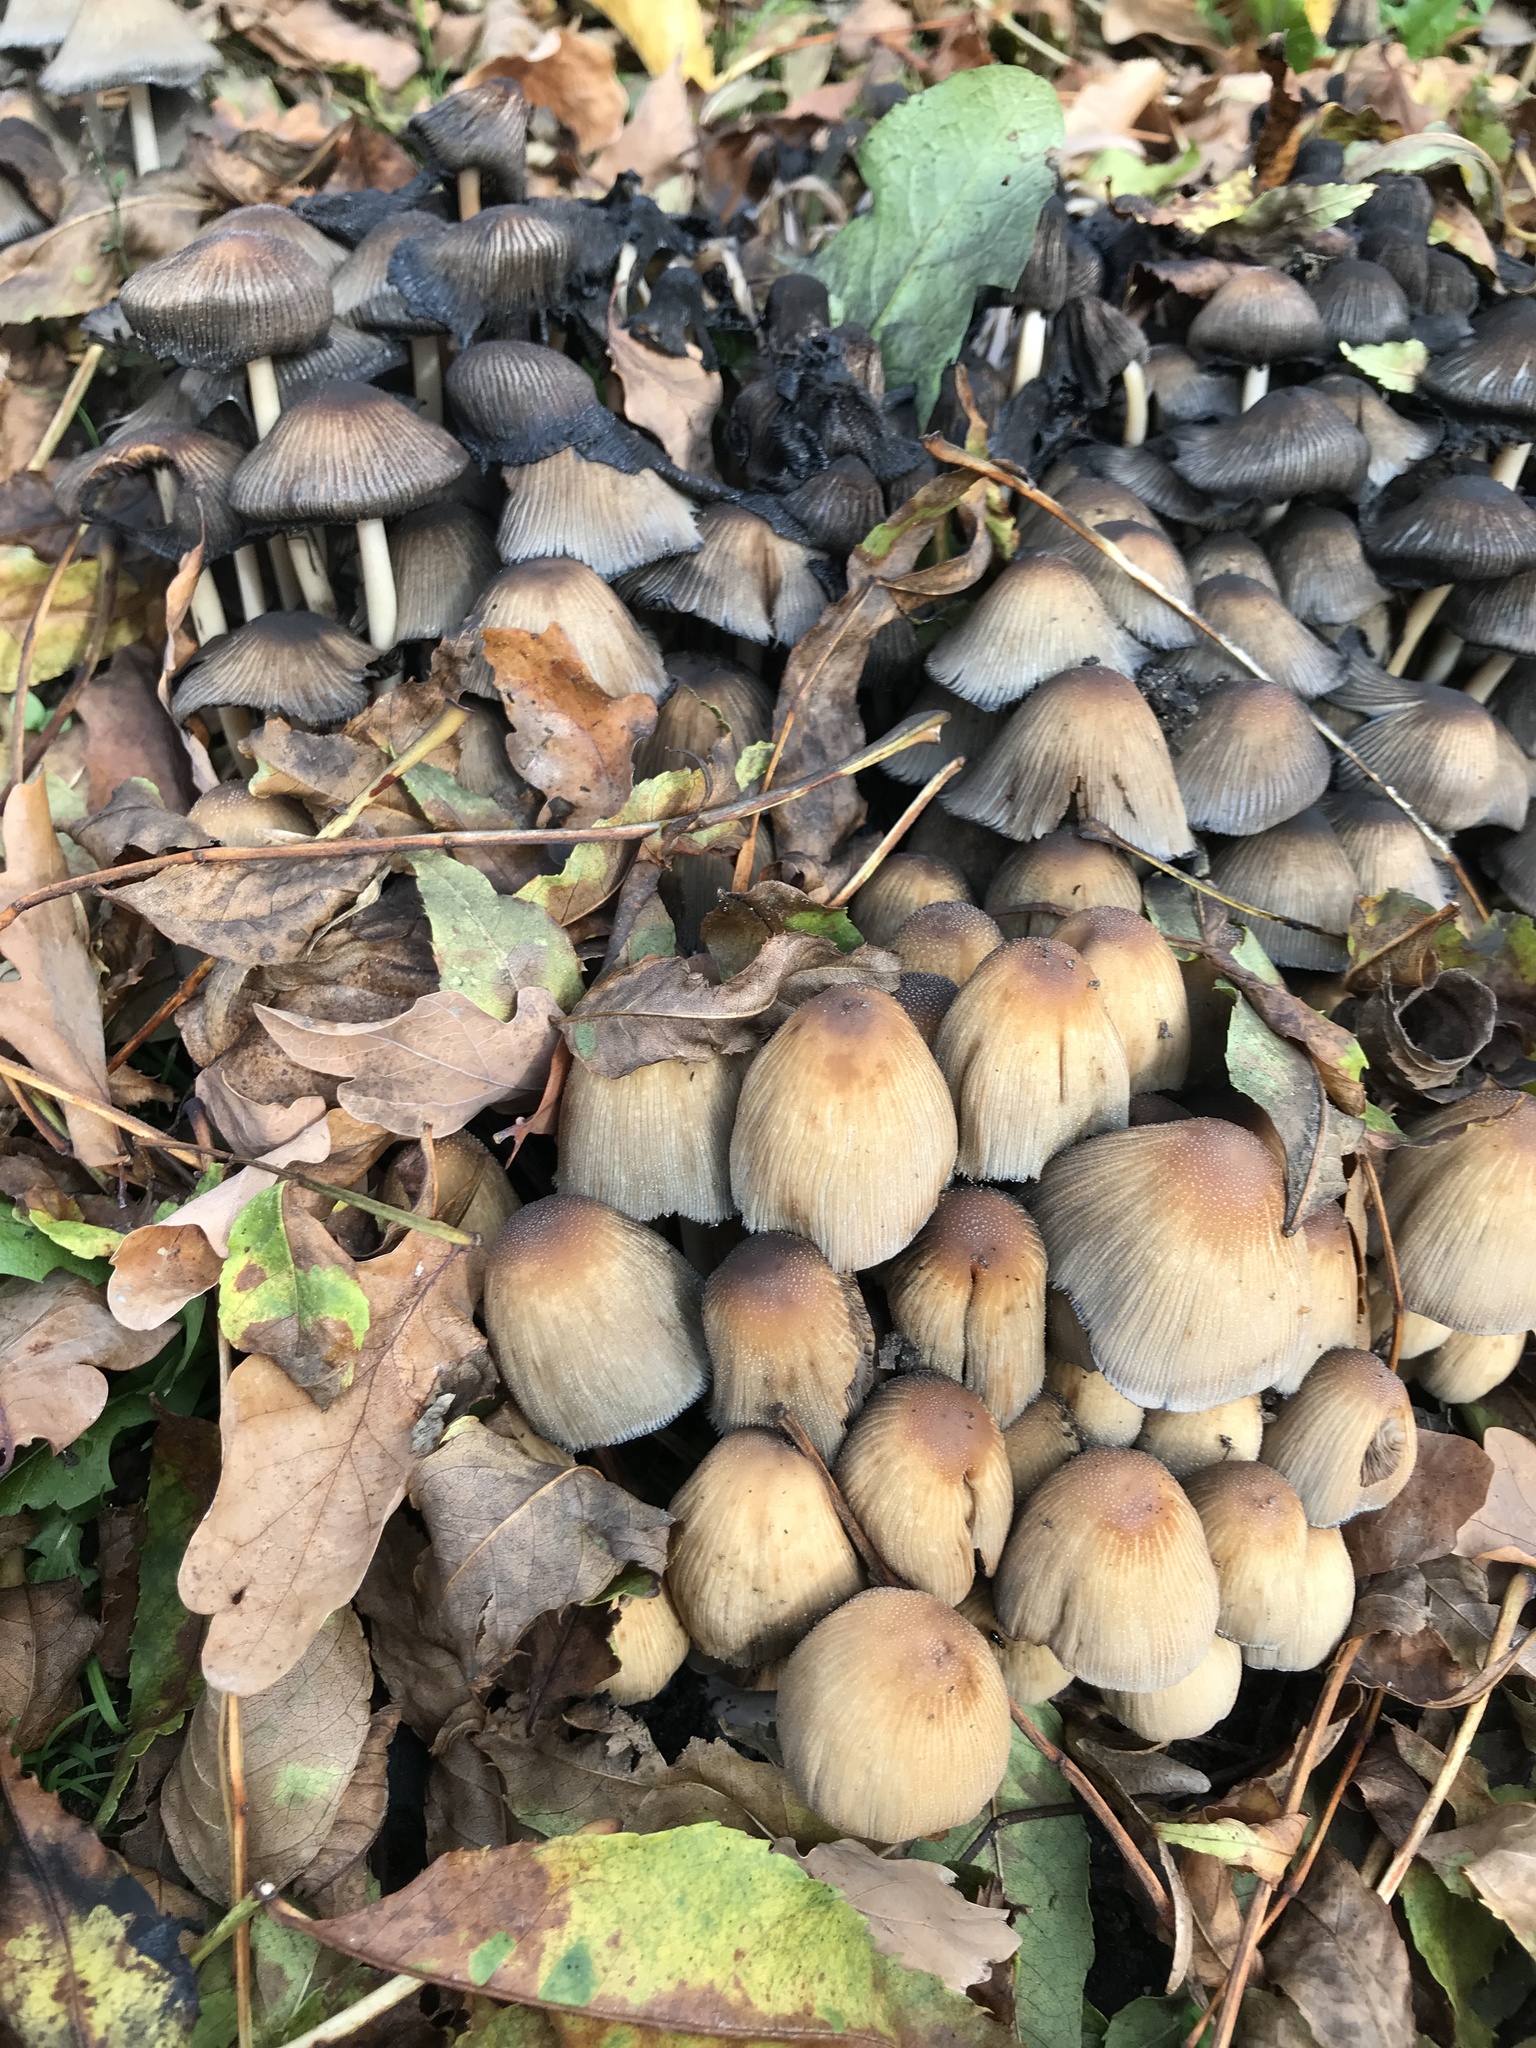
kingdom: Fungi
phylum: Basidiomycota
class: Agaricomycetes
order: Agaricales
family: Psathyrellaceae
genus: Coprinellus
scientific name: Coprinellus micaceus
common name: Glistening ink-cap
